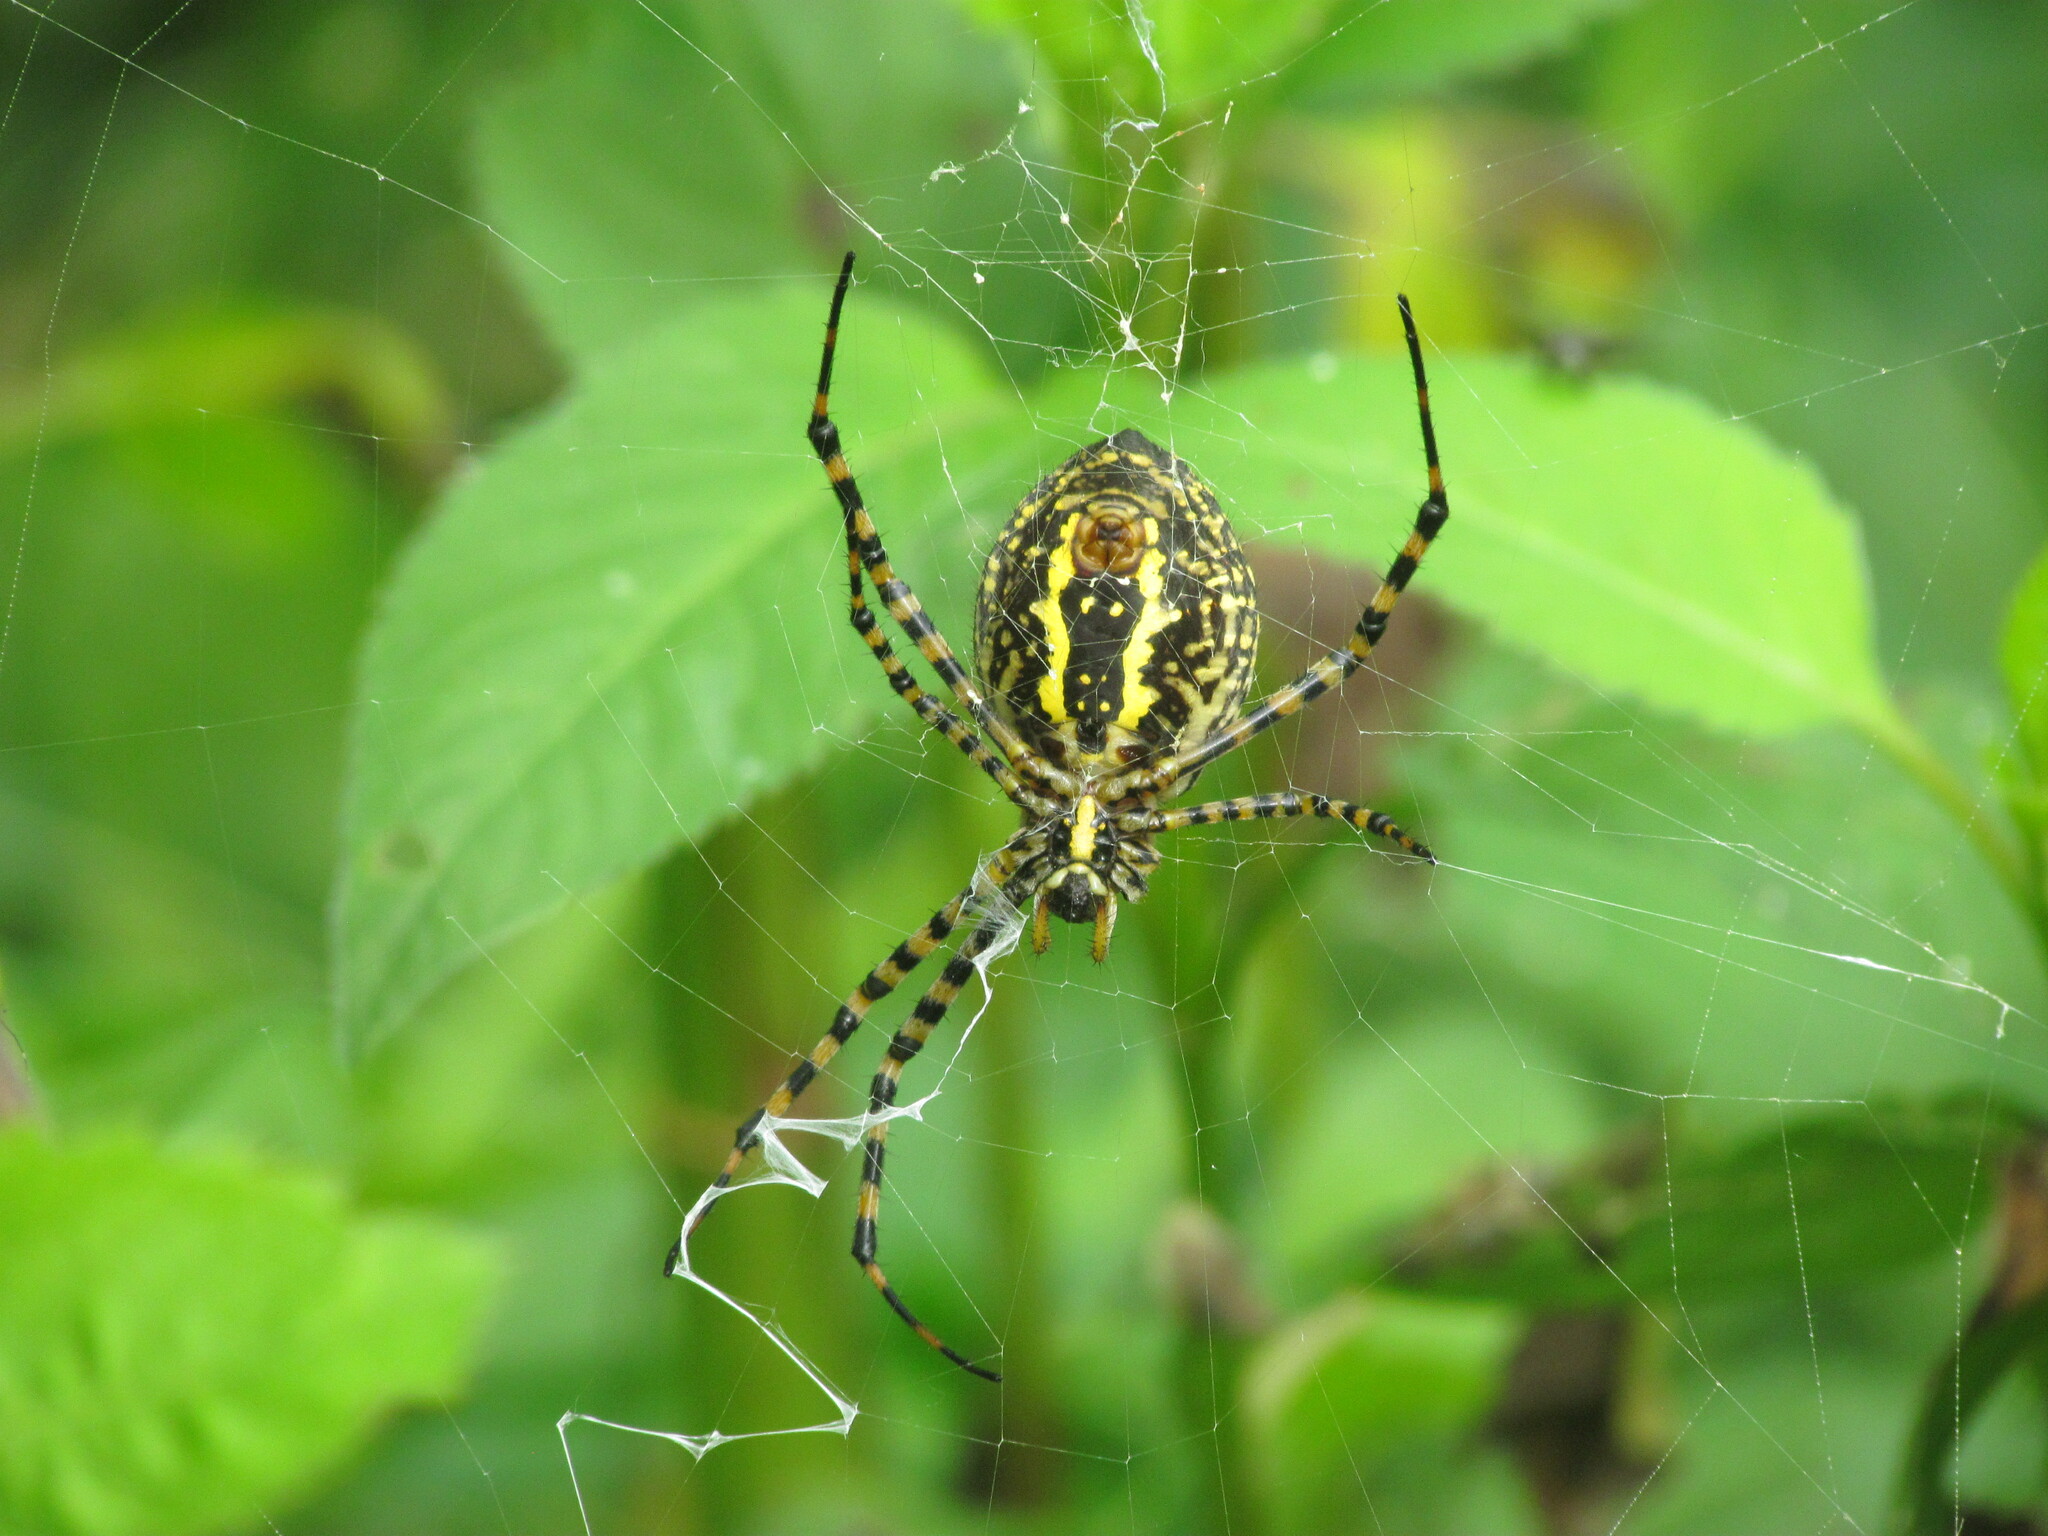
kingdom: Animalia
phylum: Arthropoda
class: Arachnida
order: Araneae
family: Araneidae
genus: Argiope
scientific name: Argiope trifasciata
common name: Banded garden spider
